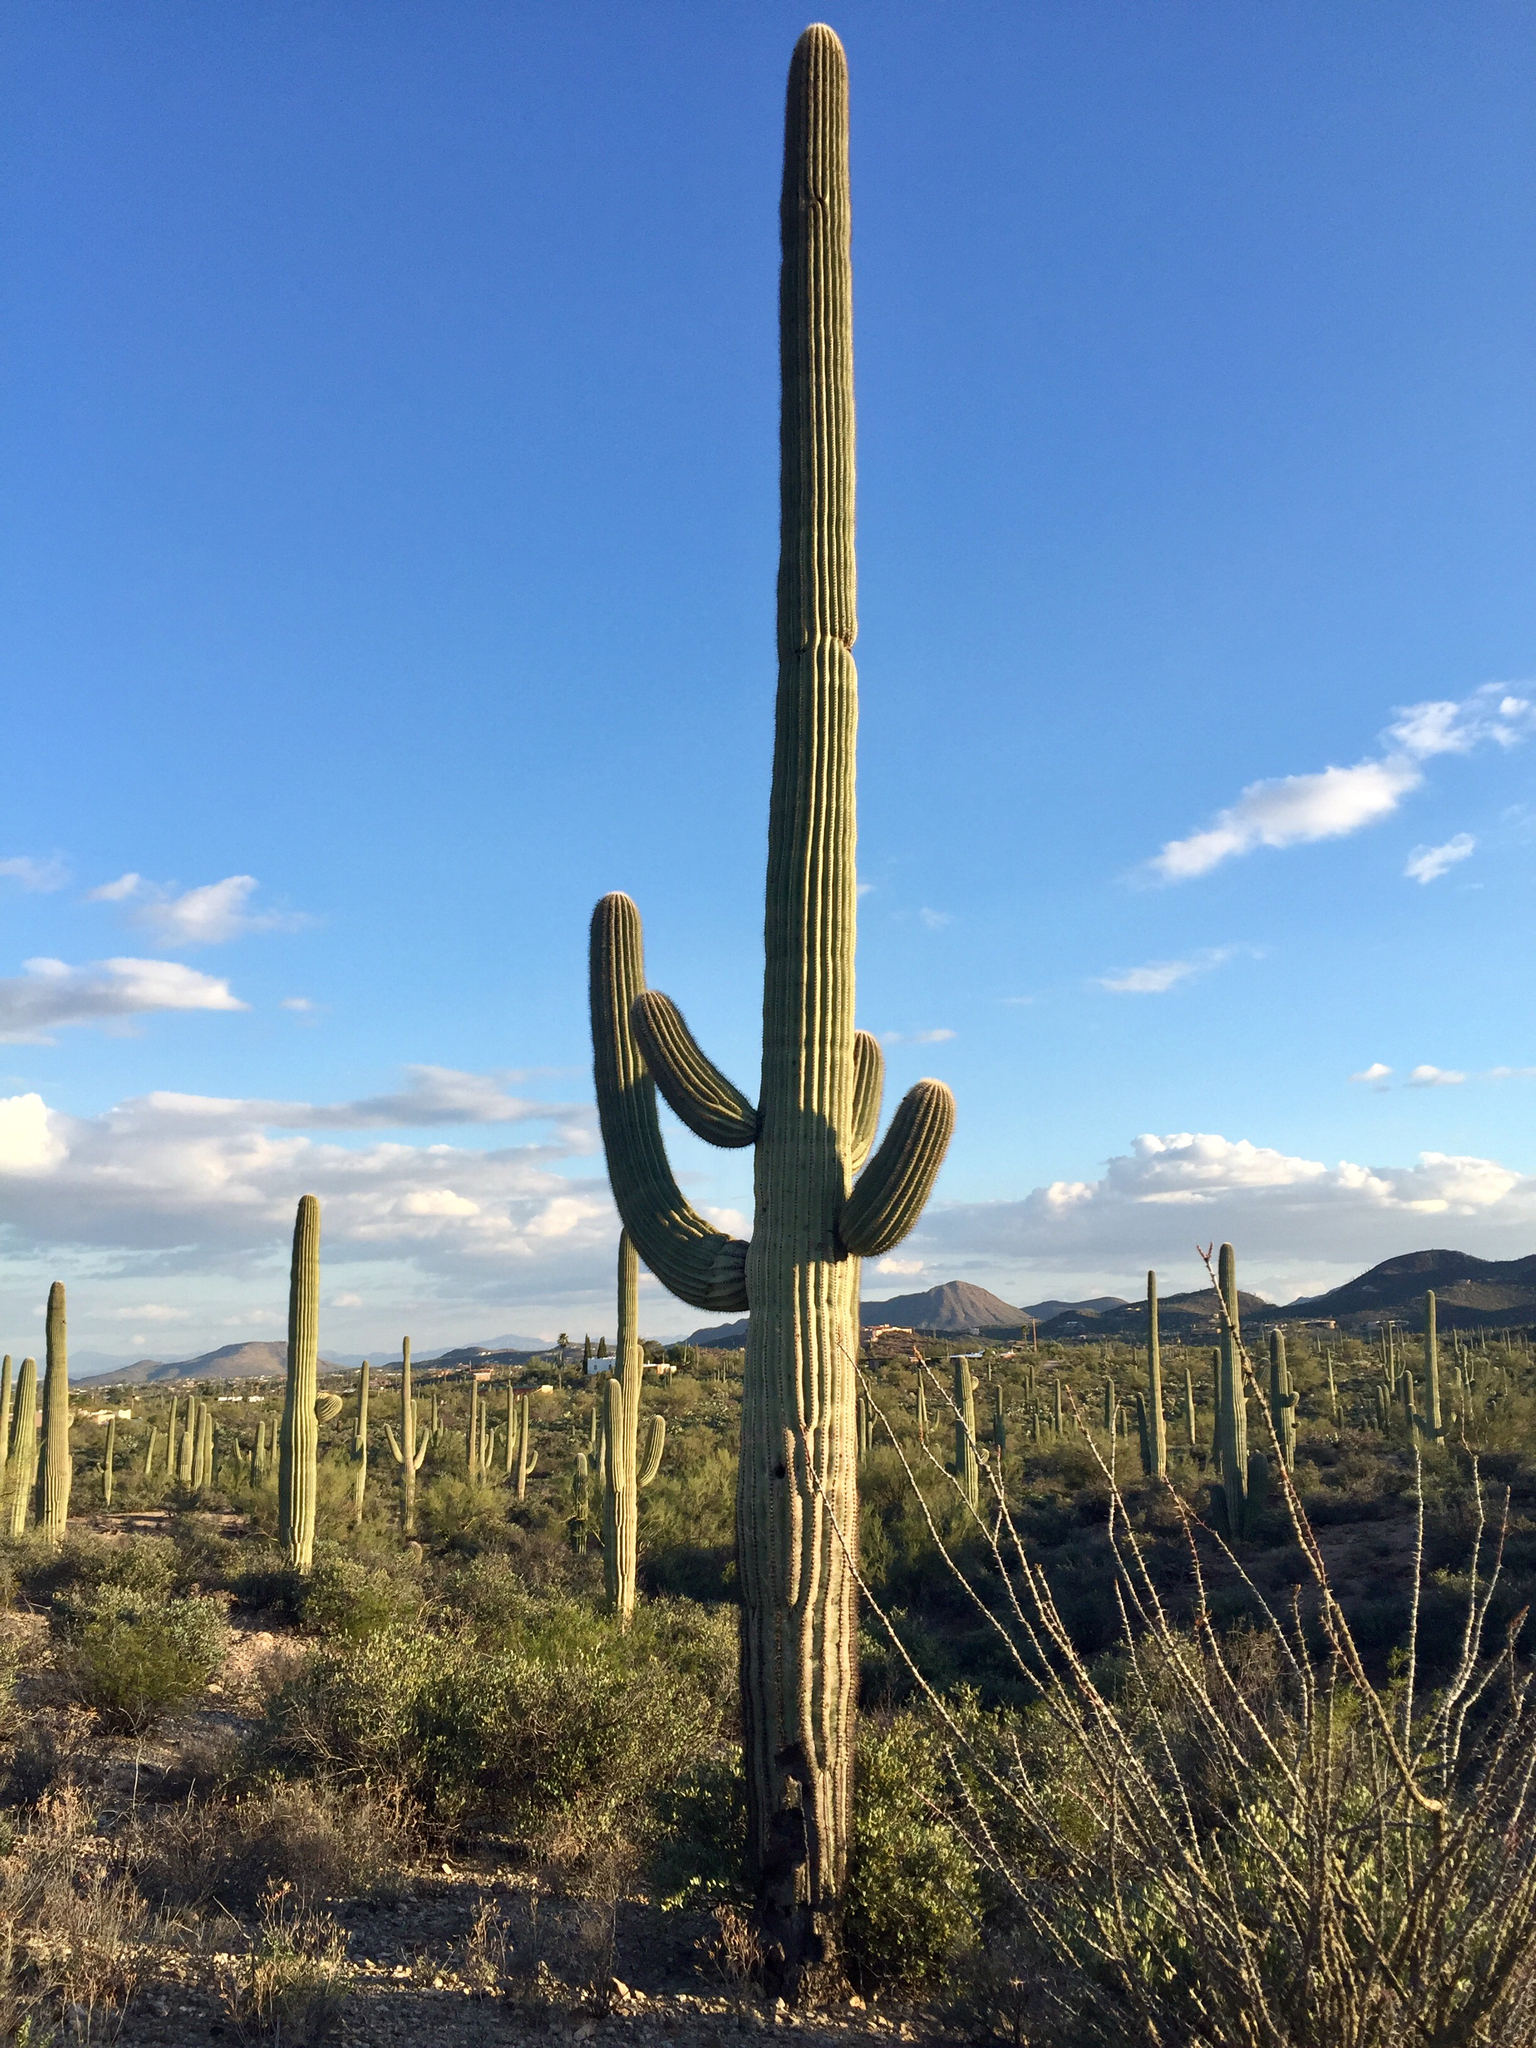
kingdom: Plantae
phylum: Tracheophyta
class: Magnoliopsida
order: Caryophyllales
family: Cactaceae
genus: Carnegiea
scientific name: Carnegiea gigantea
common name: Saguaro
